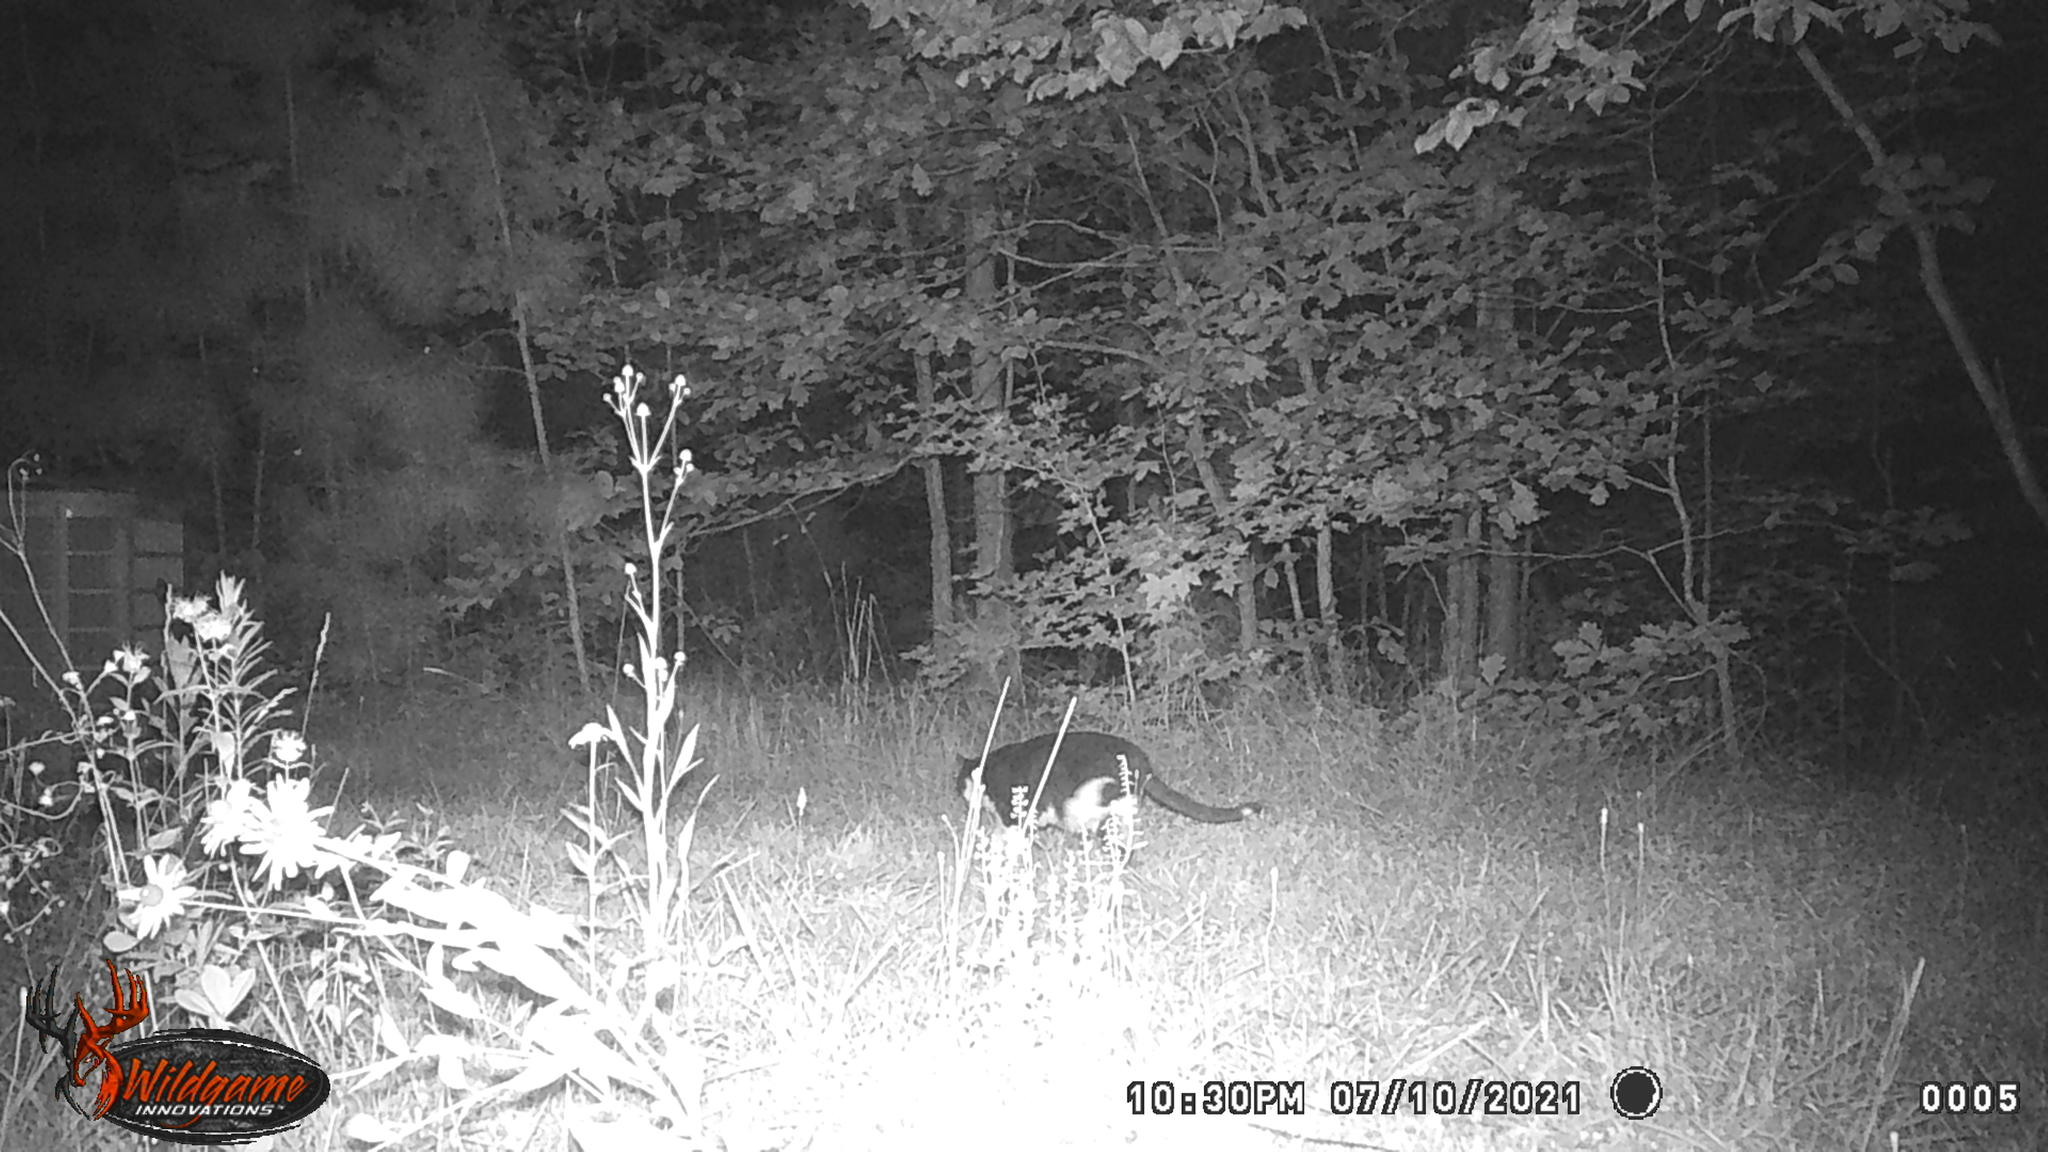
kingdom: Animalia
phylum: Chordata
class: Mammalia
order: Carnivora
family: Felidae
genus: Felis
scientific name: Felis catus
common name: Domestic cat
